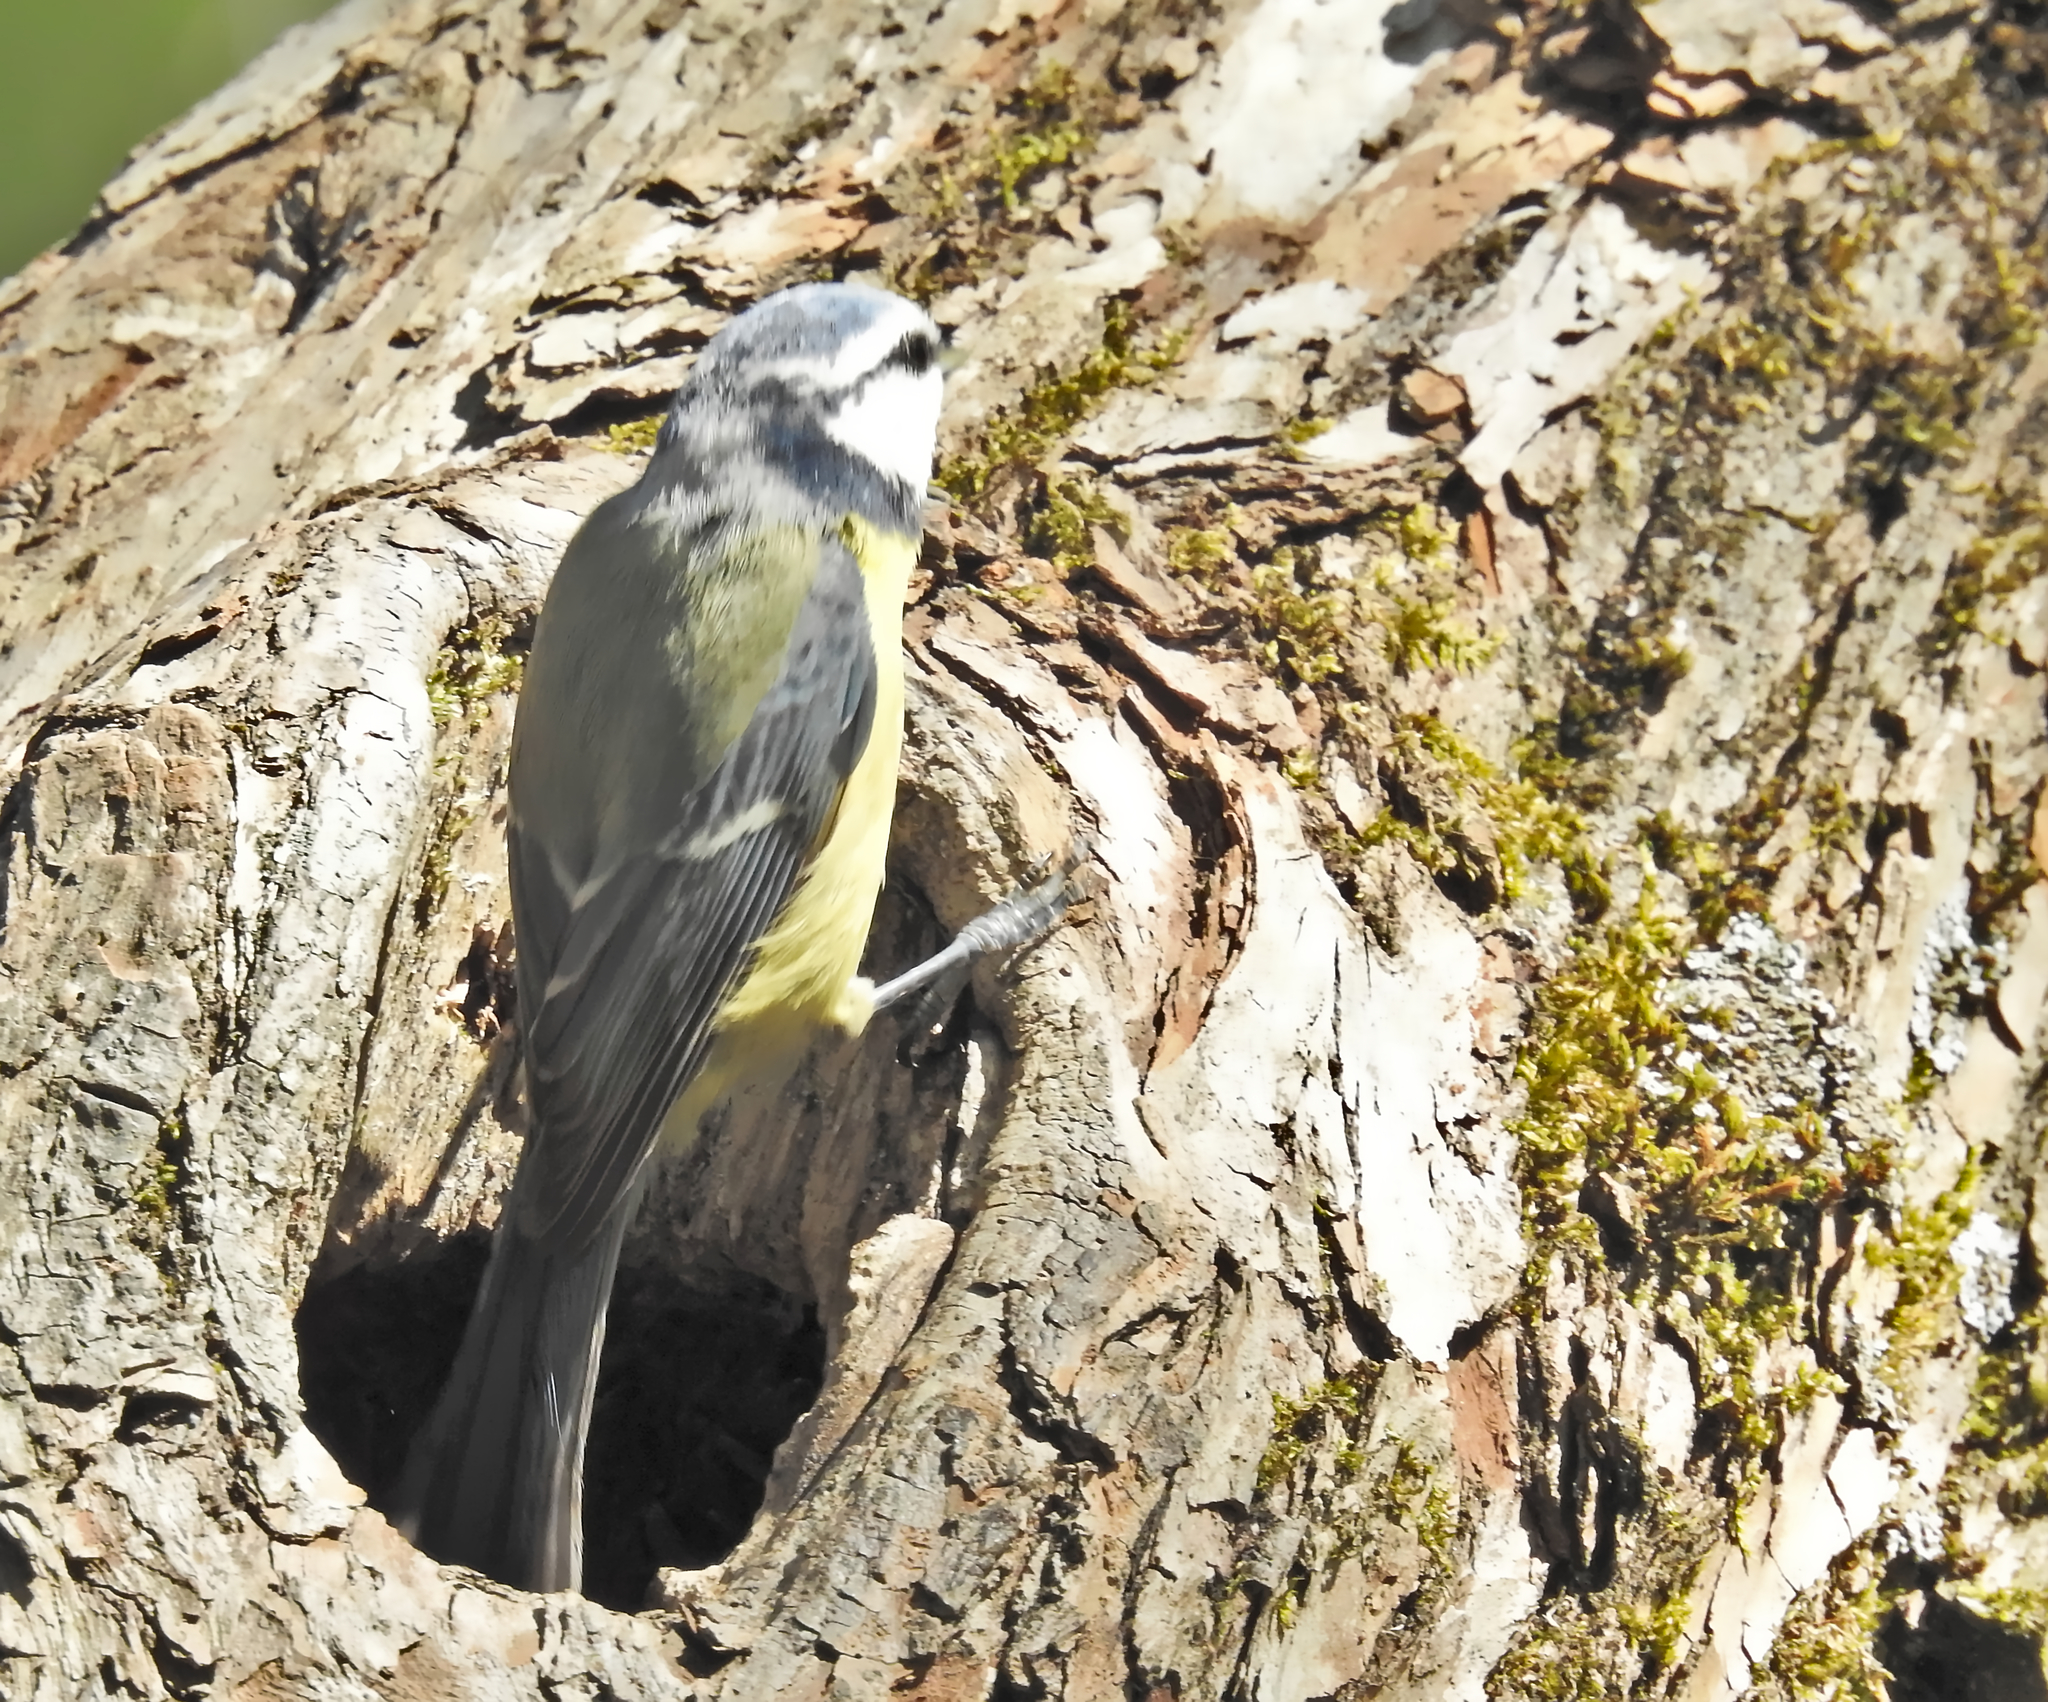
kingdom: Animalia
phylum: Chordata
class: Aves
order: Passeriformes
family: Paridae
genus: Cyanistes
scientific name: Cyanistes caeruleus
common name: Eurasian blue tit
